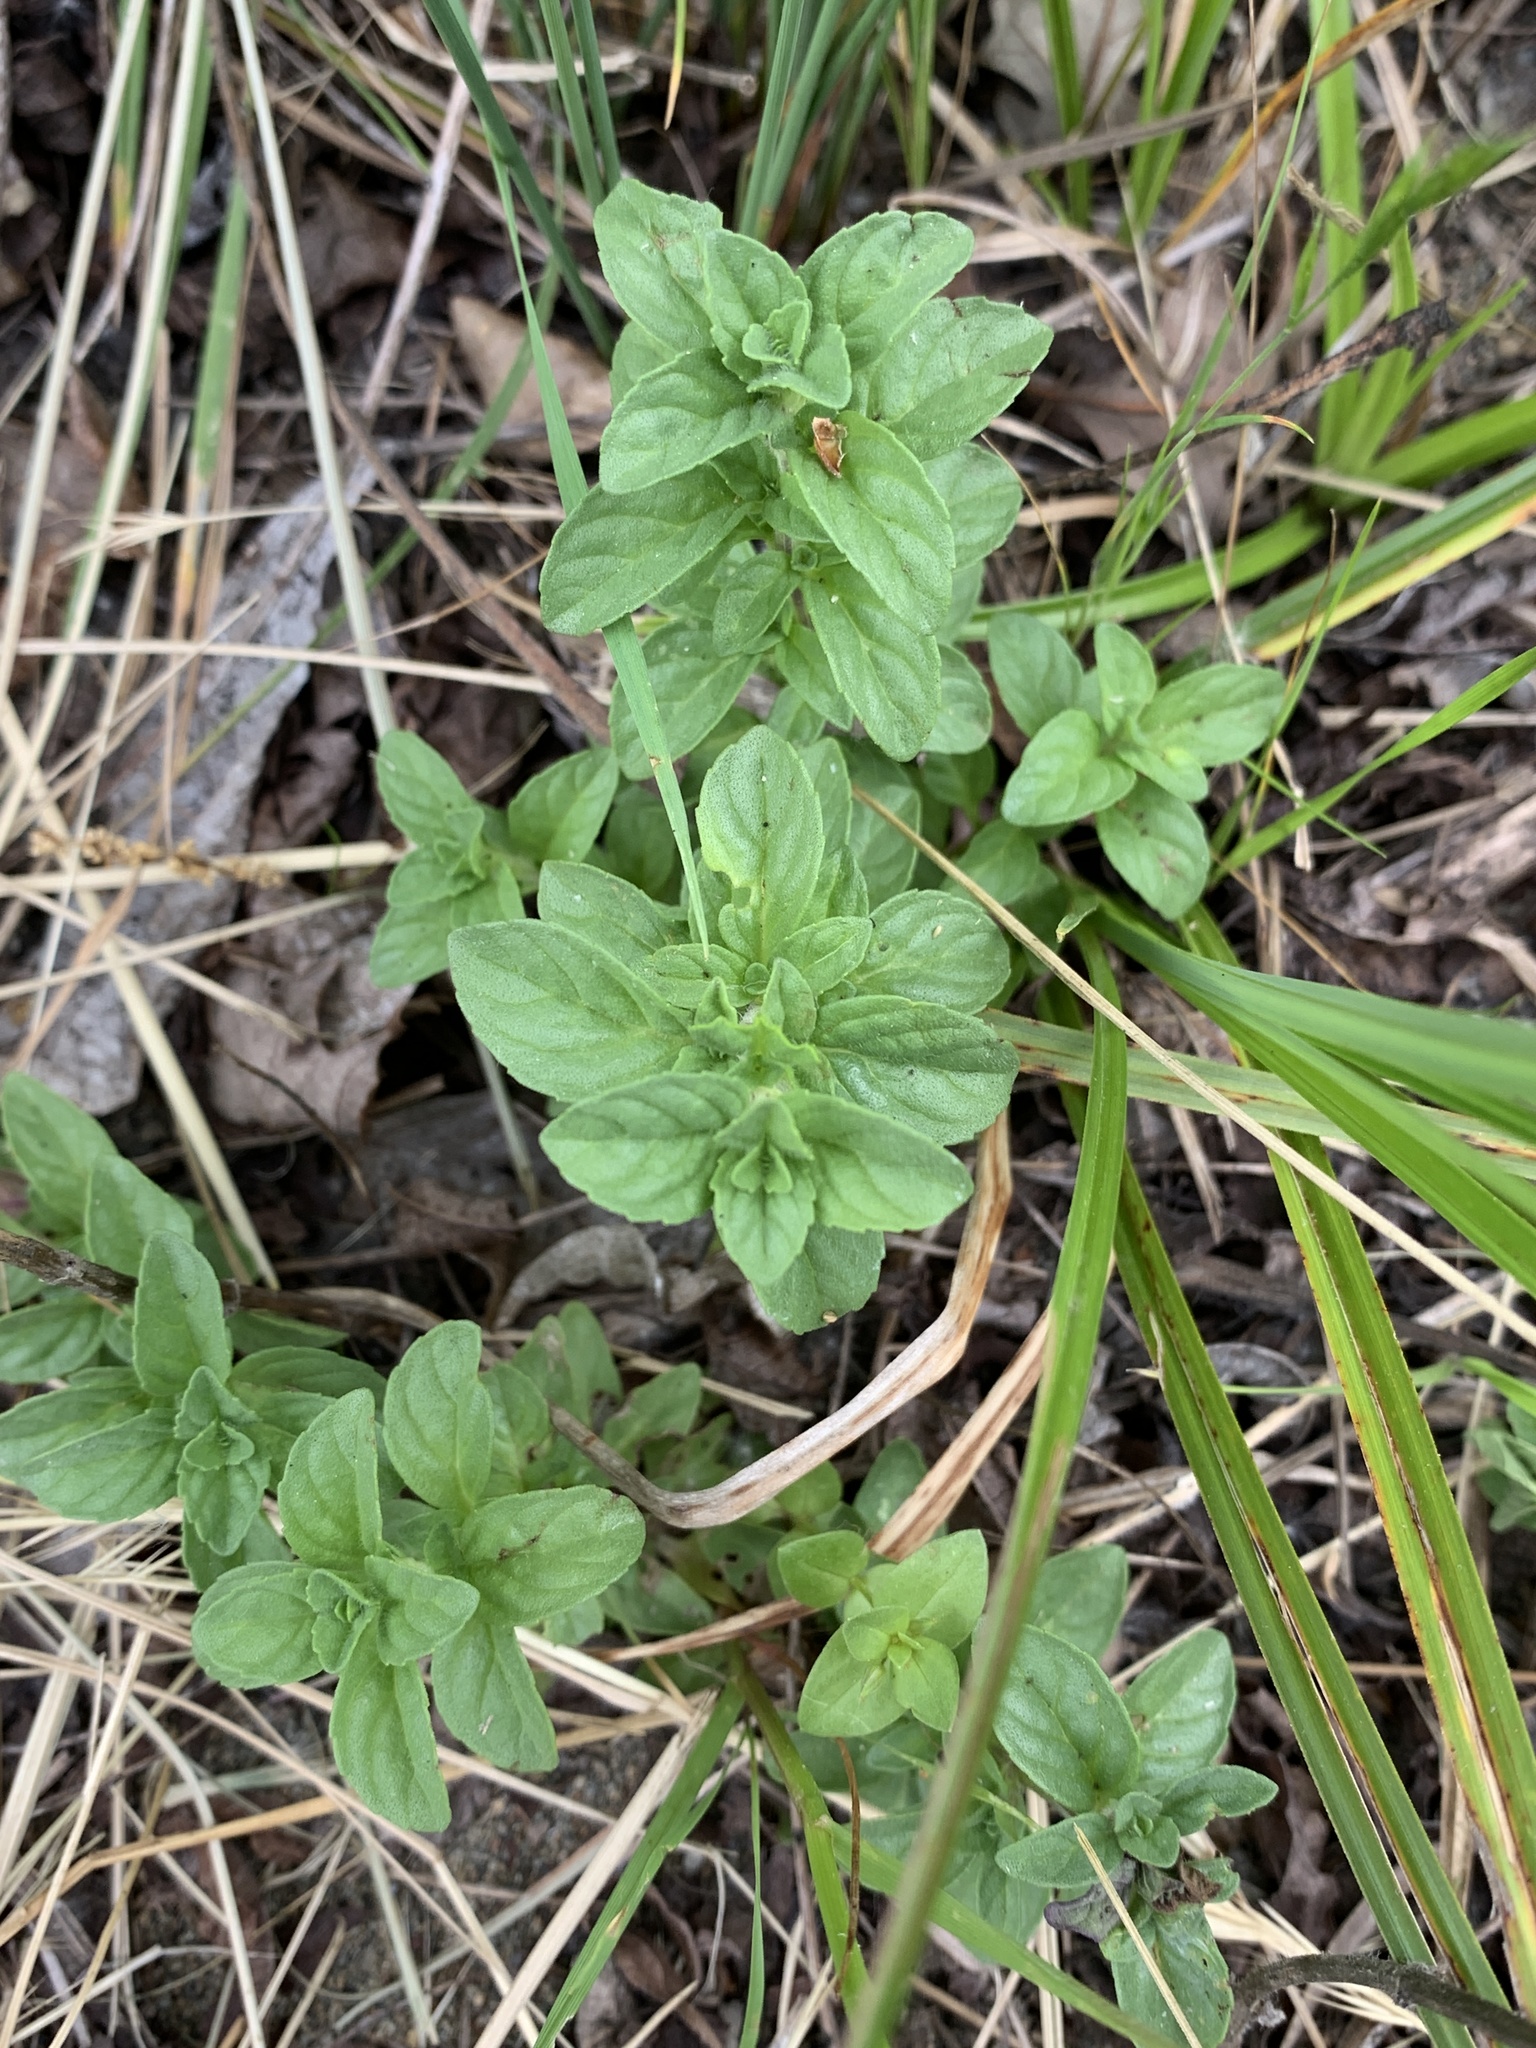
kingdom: Plantae
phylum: Tracheophyta
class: Magnoliopsida
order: Lamiales
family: Lamiaceae
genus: Mentha
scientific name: Mentha pulegium
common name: Pennyroyal
